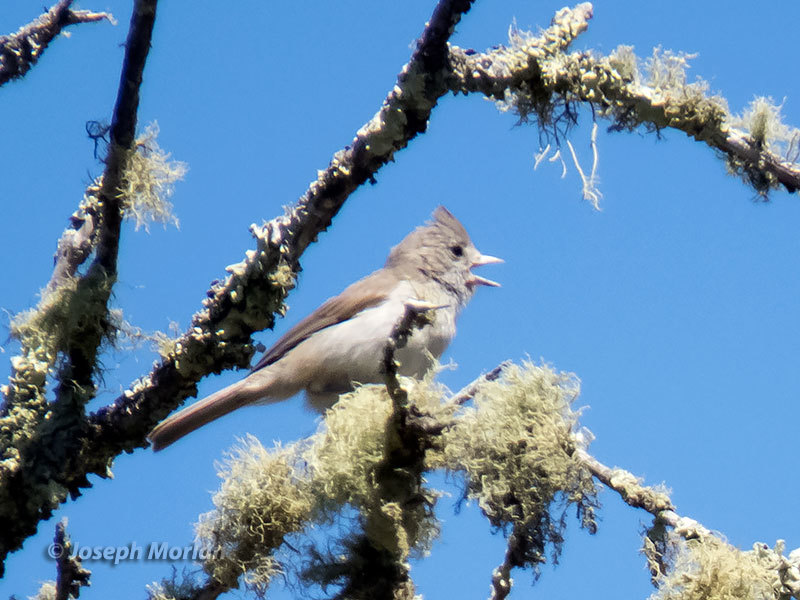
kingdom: Animalia
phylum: Chordata
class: Aves
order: Passeriformes
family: Paridae
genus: Baeolophus
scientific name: Baeolophus inornatus
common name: Oak titmouse
